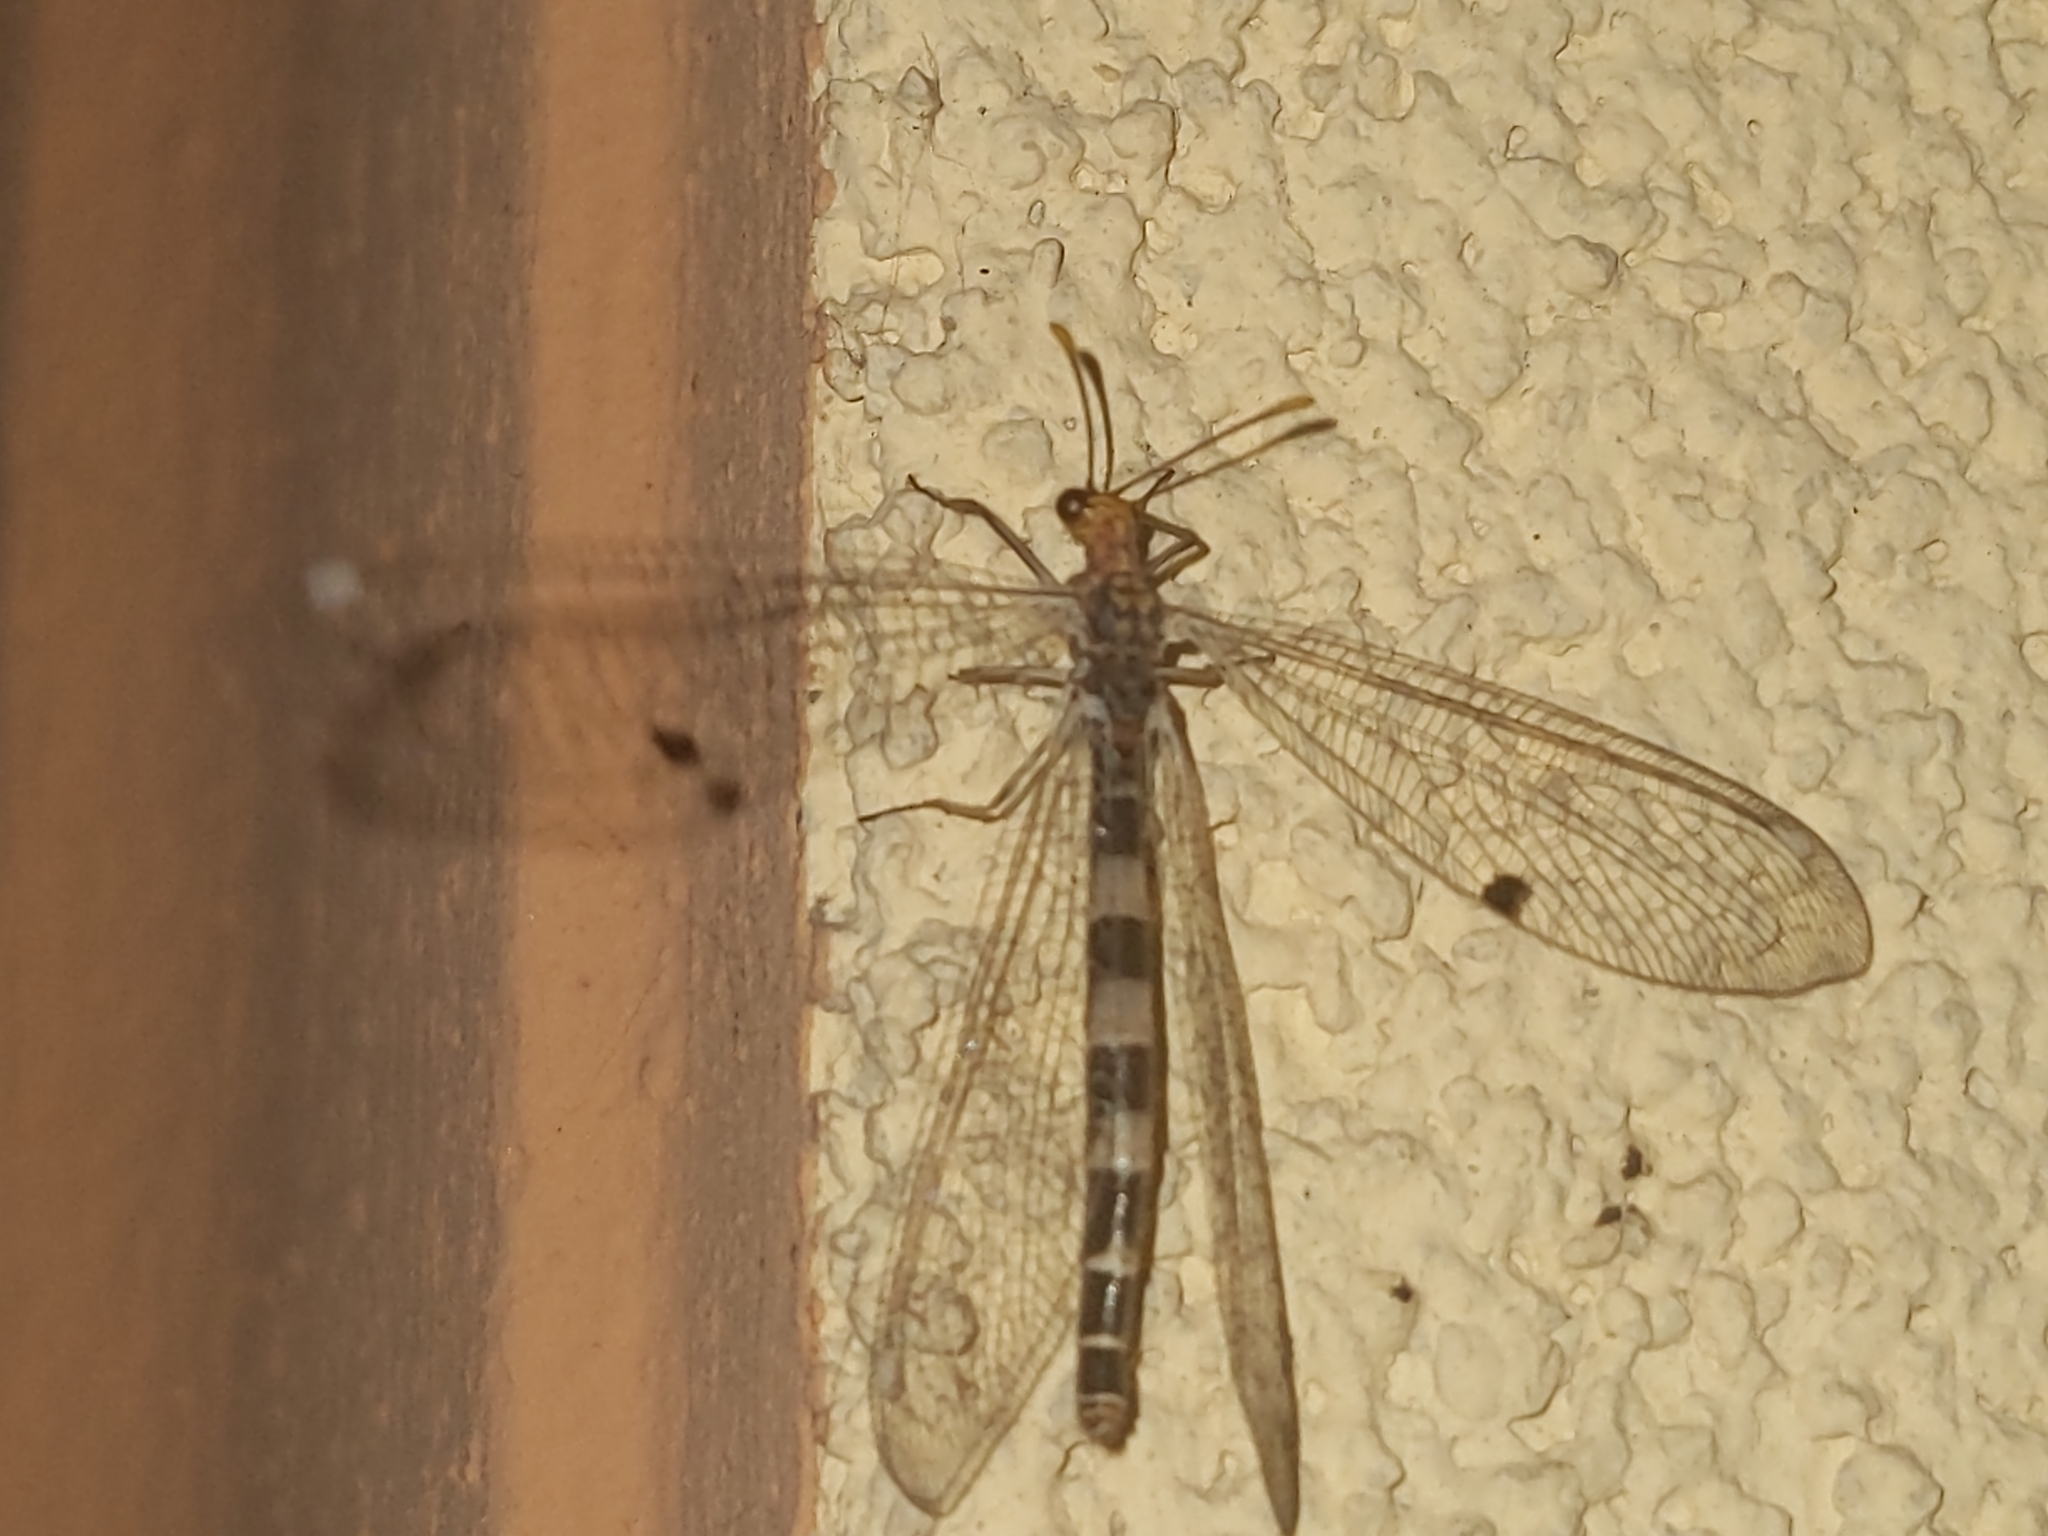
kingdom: Animalia
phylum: Arthropoda
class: Insecta
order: Neuroptera
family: Myrmeleontidae
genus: Megistopus
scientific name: Megistopus flavicornis
